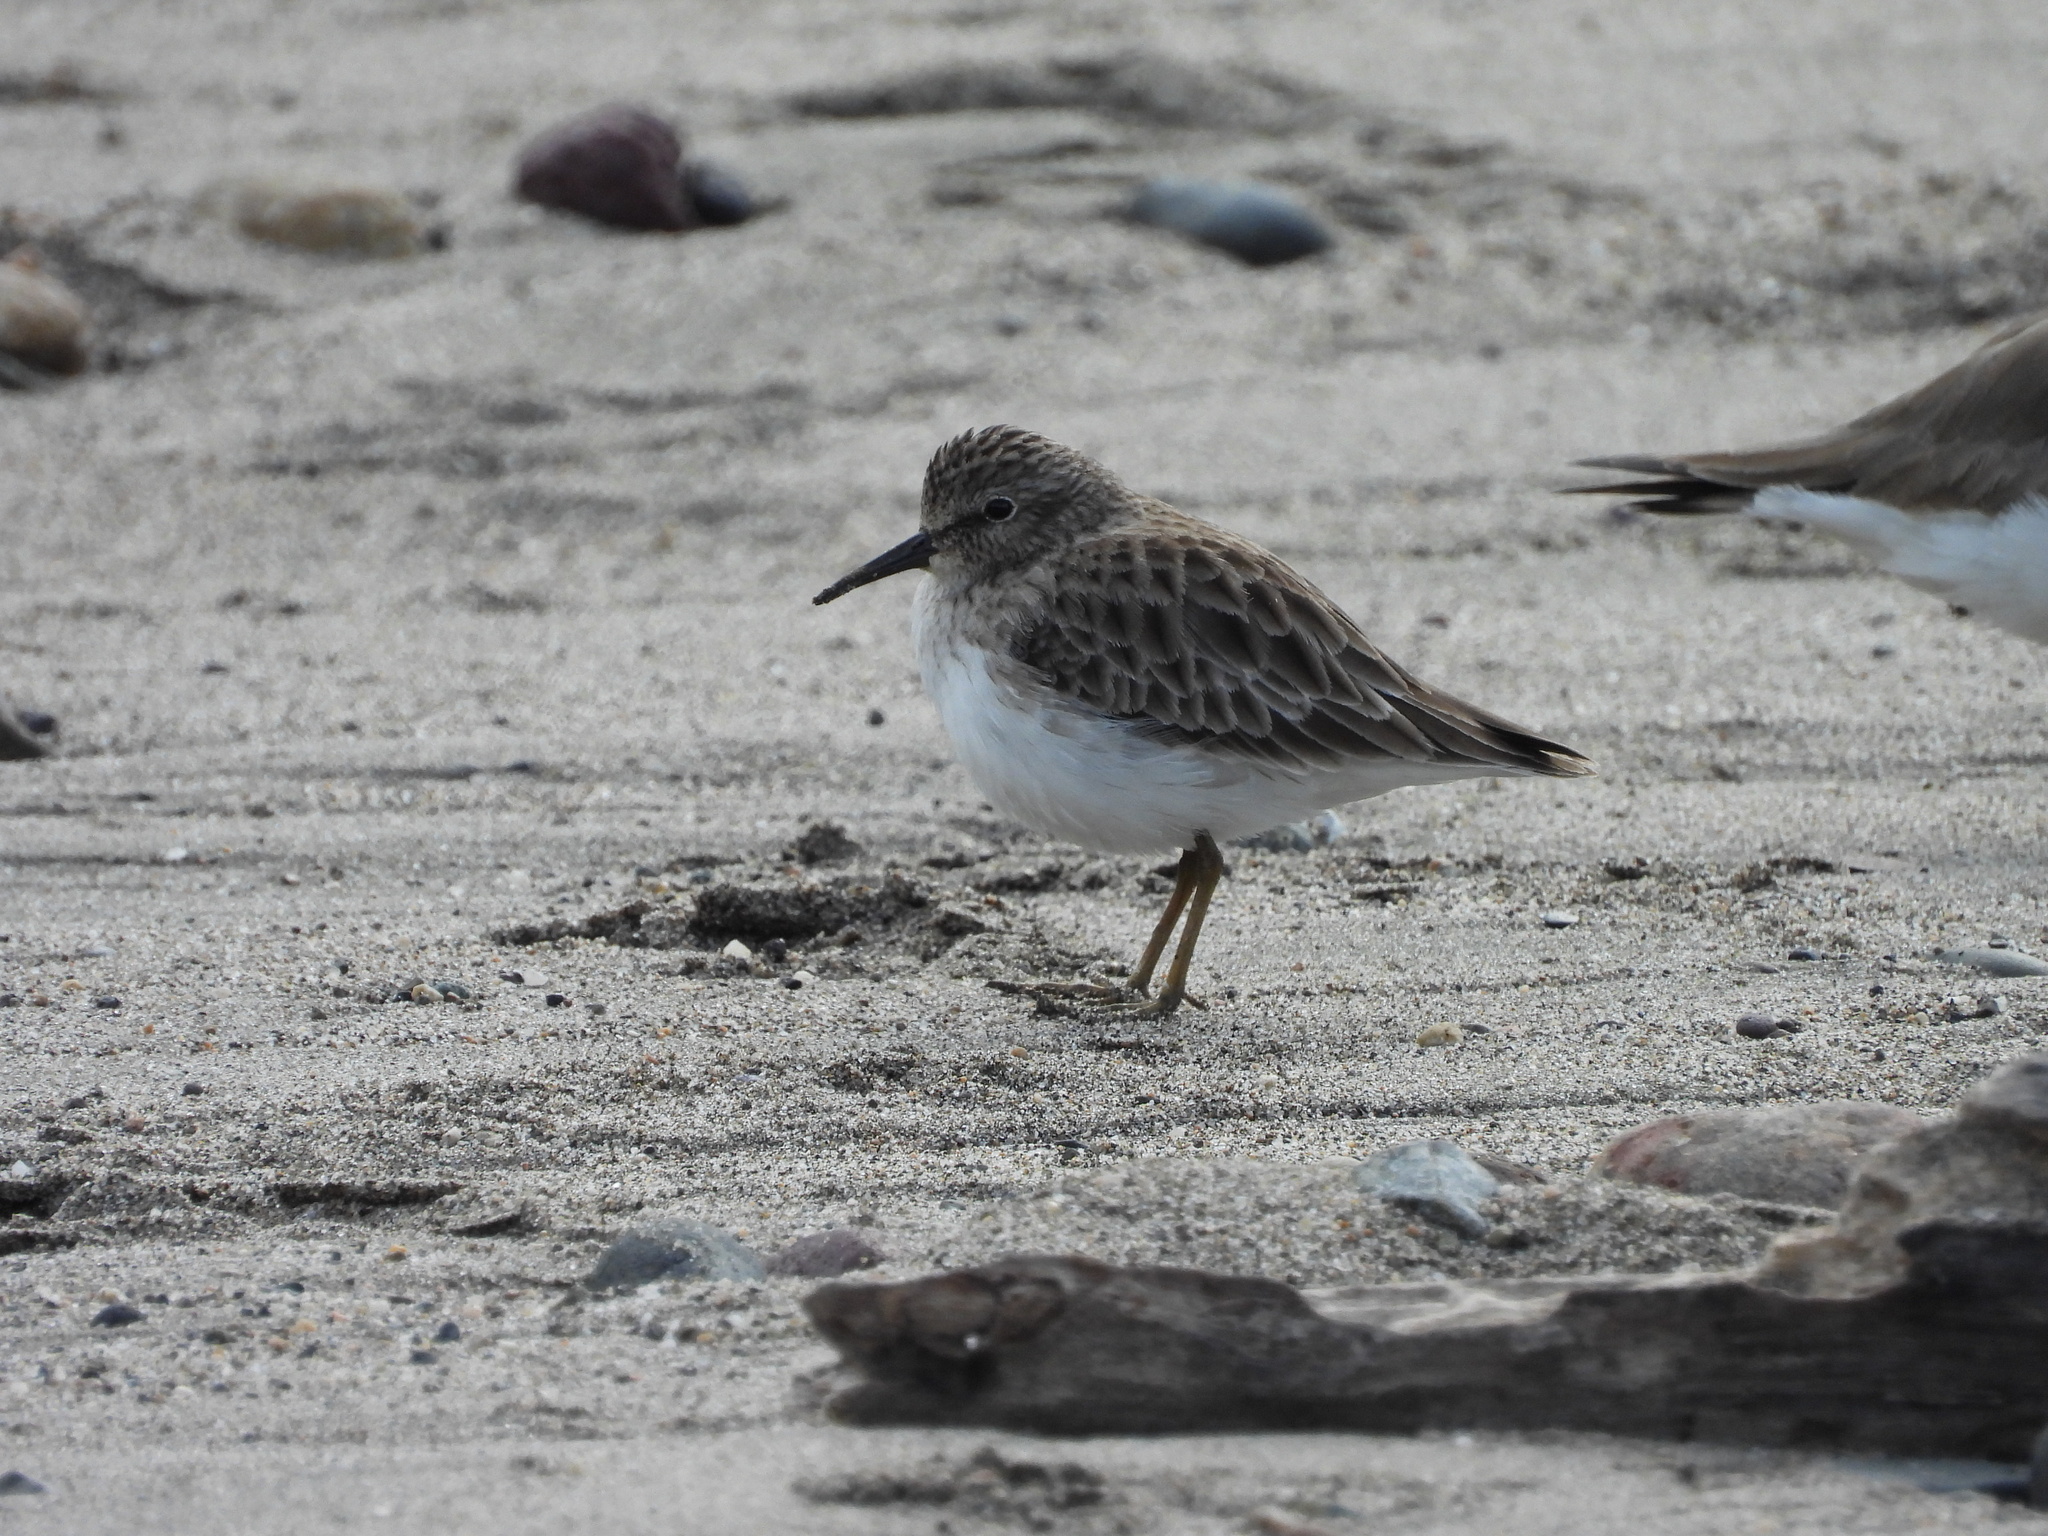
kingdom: Animalia
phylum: Chordata
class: Aves
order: Charadriiformes
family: Scolopacidae
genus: Calidris
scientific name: Calidris minutilla
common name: Least sandpiper
